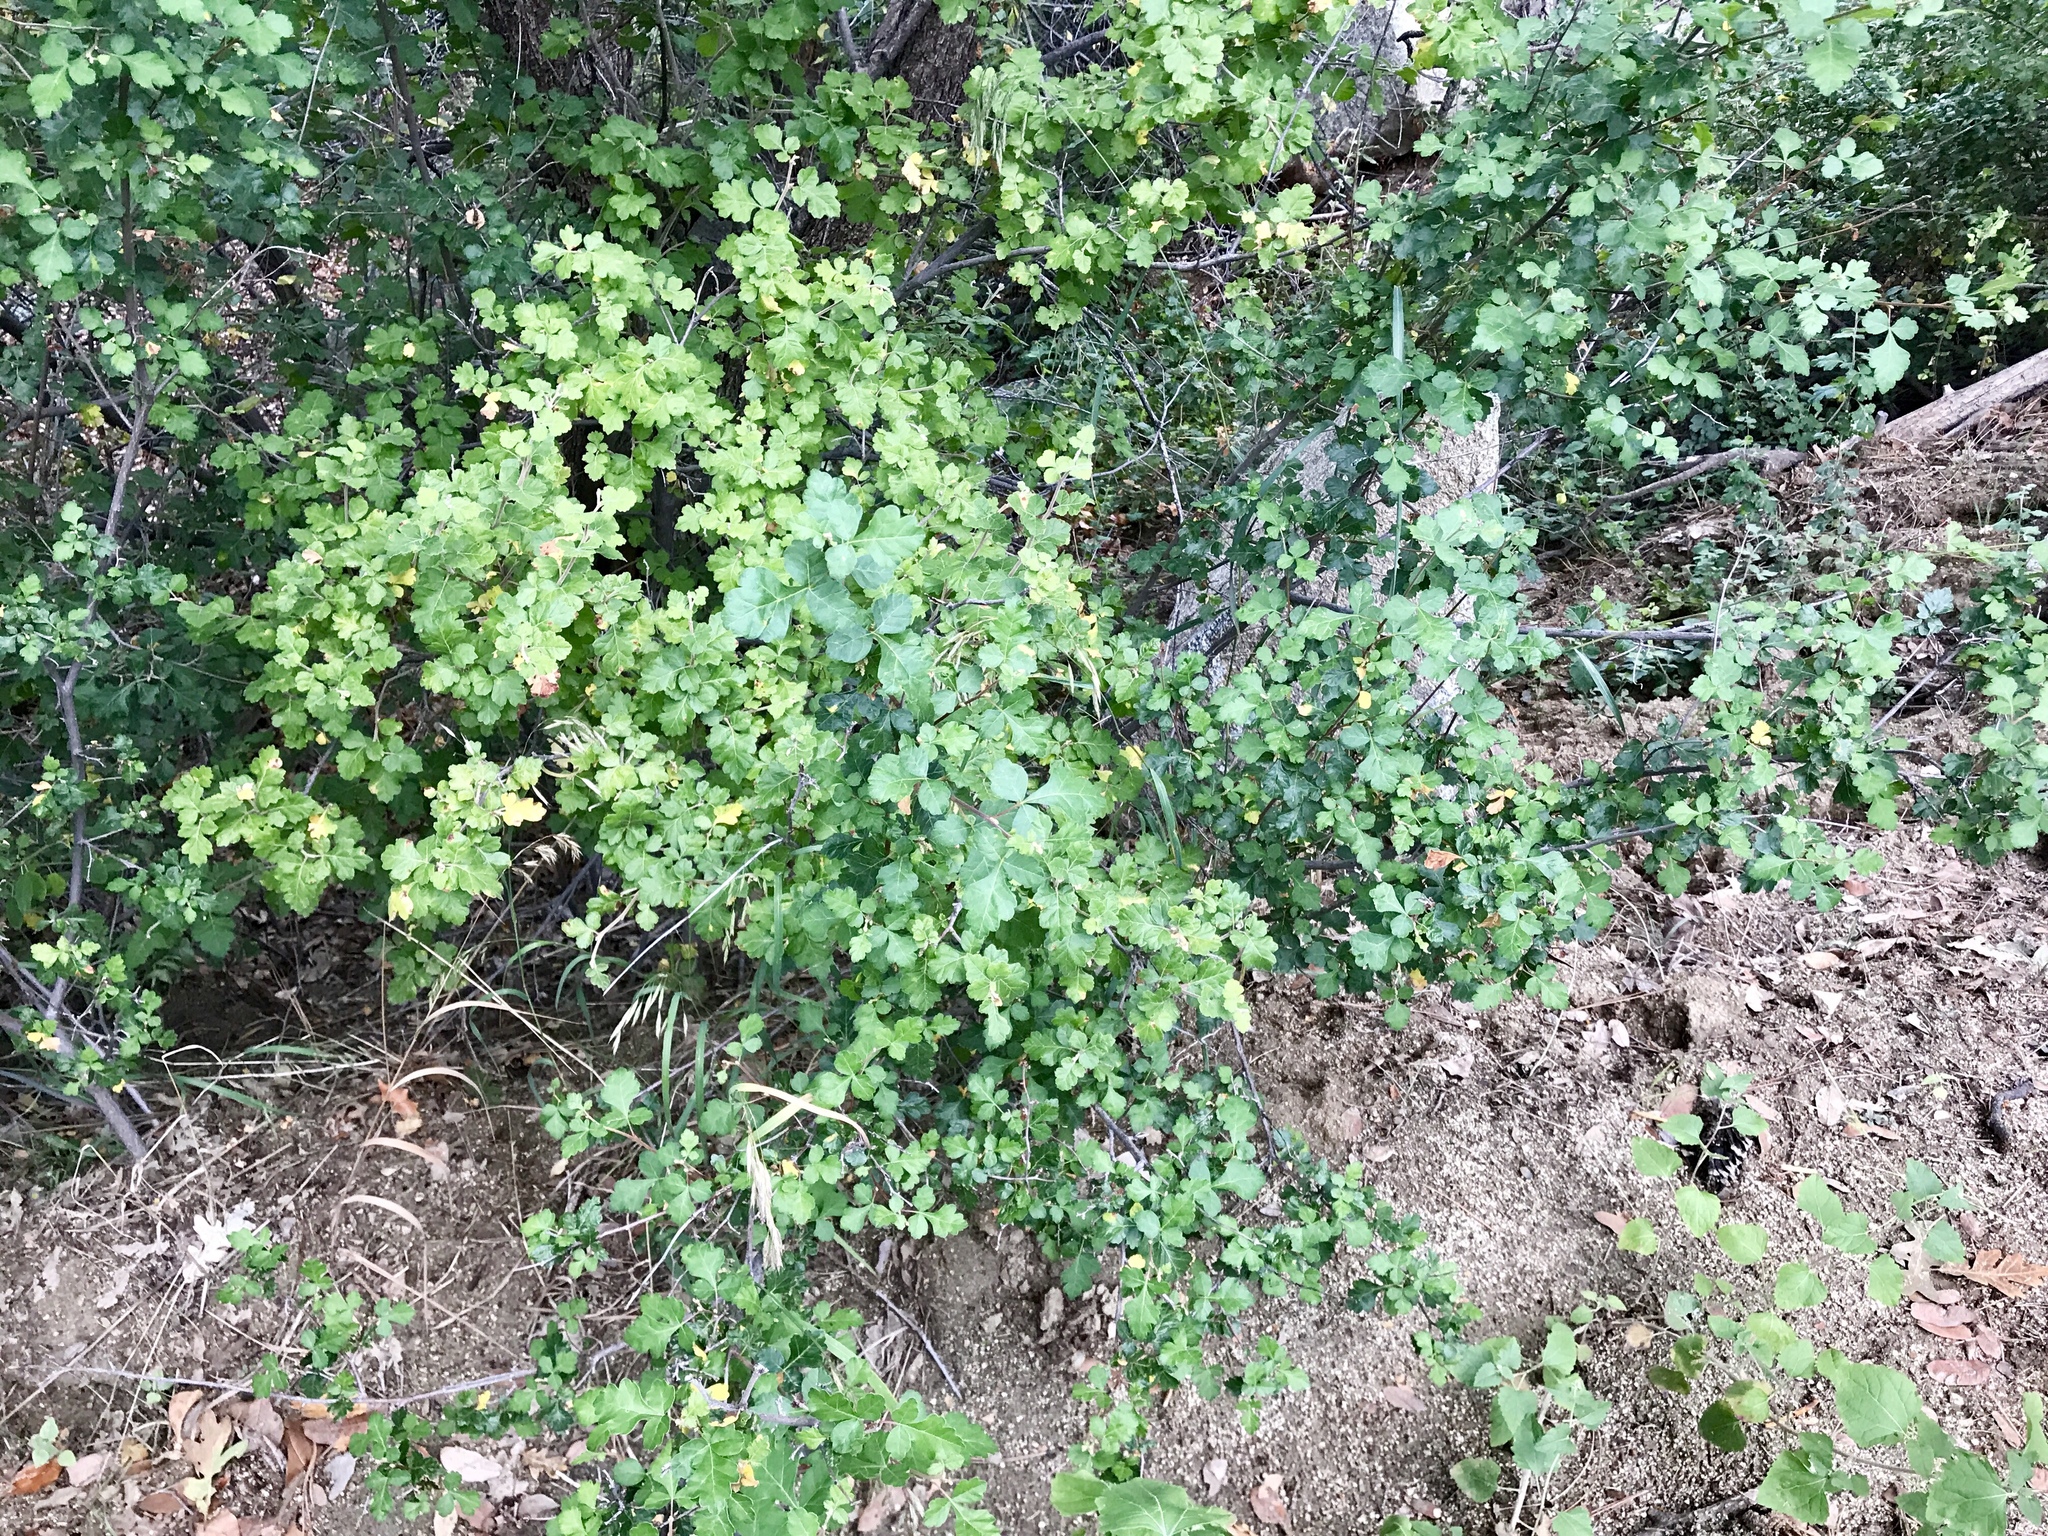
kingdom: Plantae
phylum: Tracheophyta
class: Magnoliopsida
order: Sapindales
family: Anacardiaceae
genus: Rhus
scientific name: Rhus aromatica
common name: Aromatic sumac
